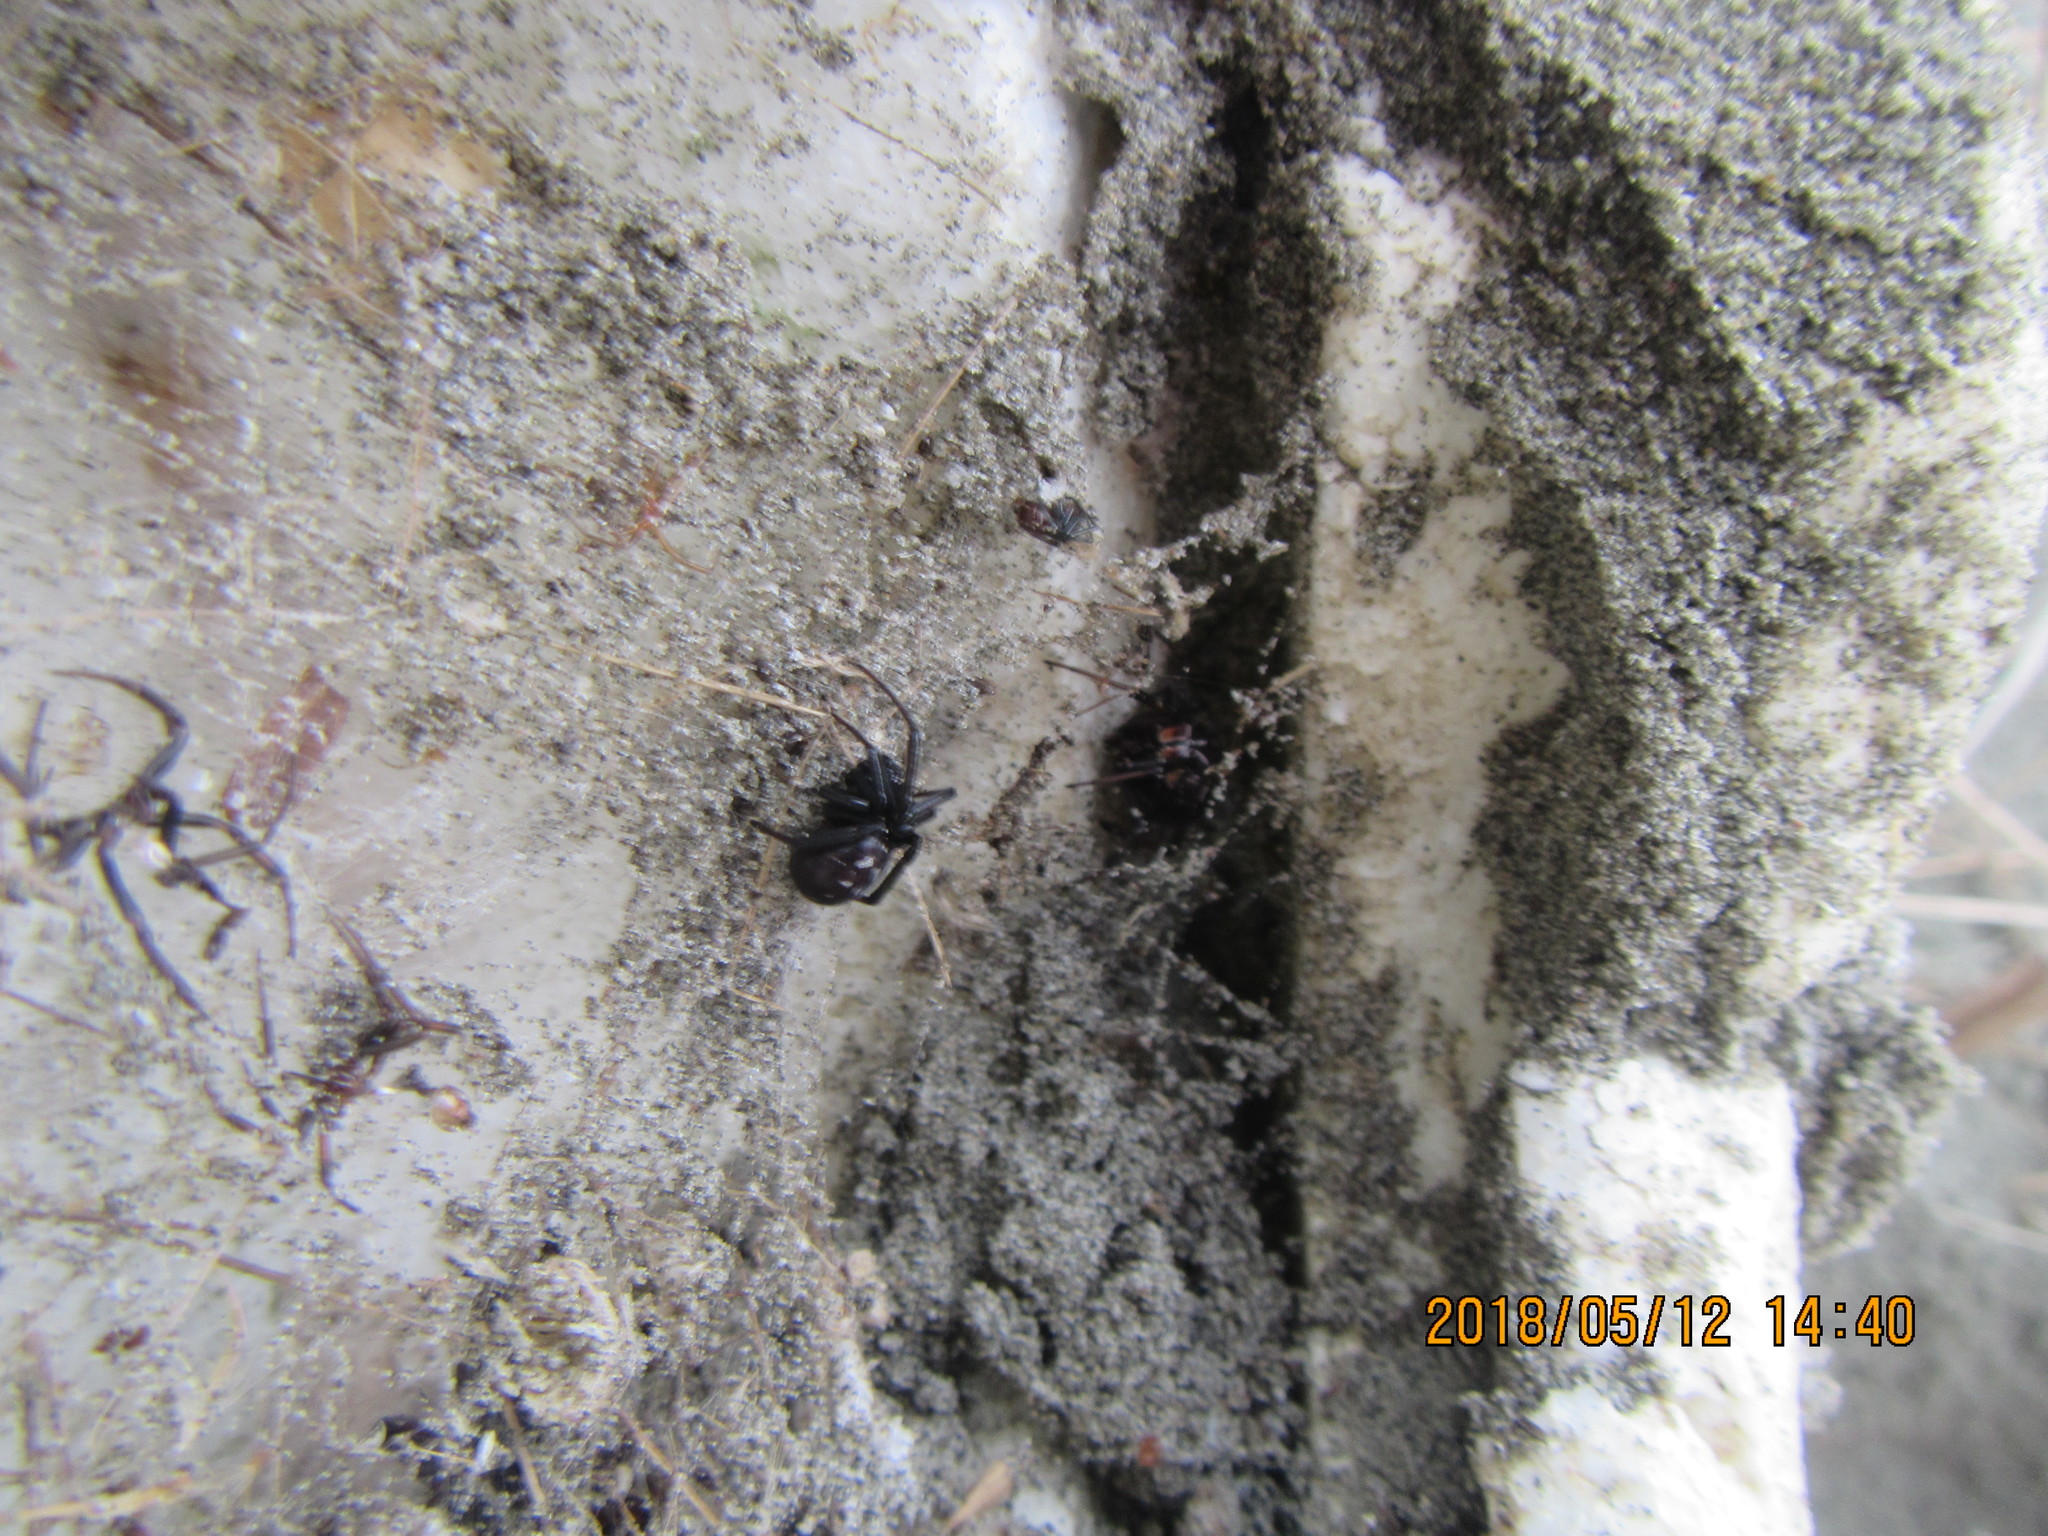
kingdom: Animalia
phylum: Arthropoda
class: Arachnida
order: Araneae
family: Theridiidae
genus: Latrodectus
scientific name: Latrodectus katipo
